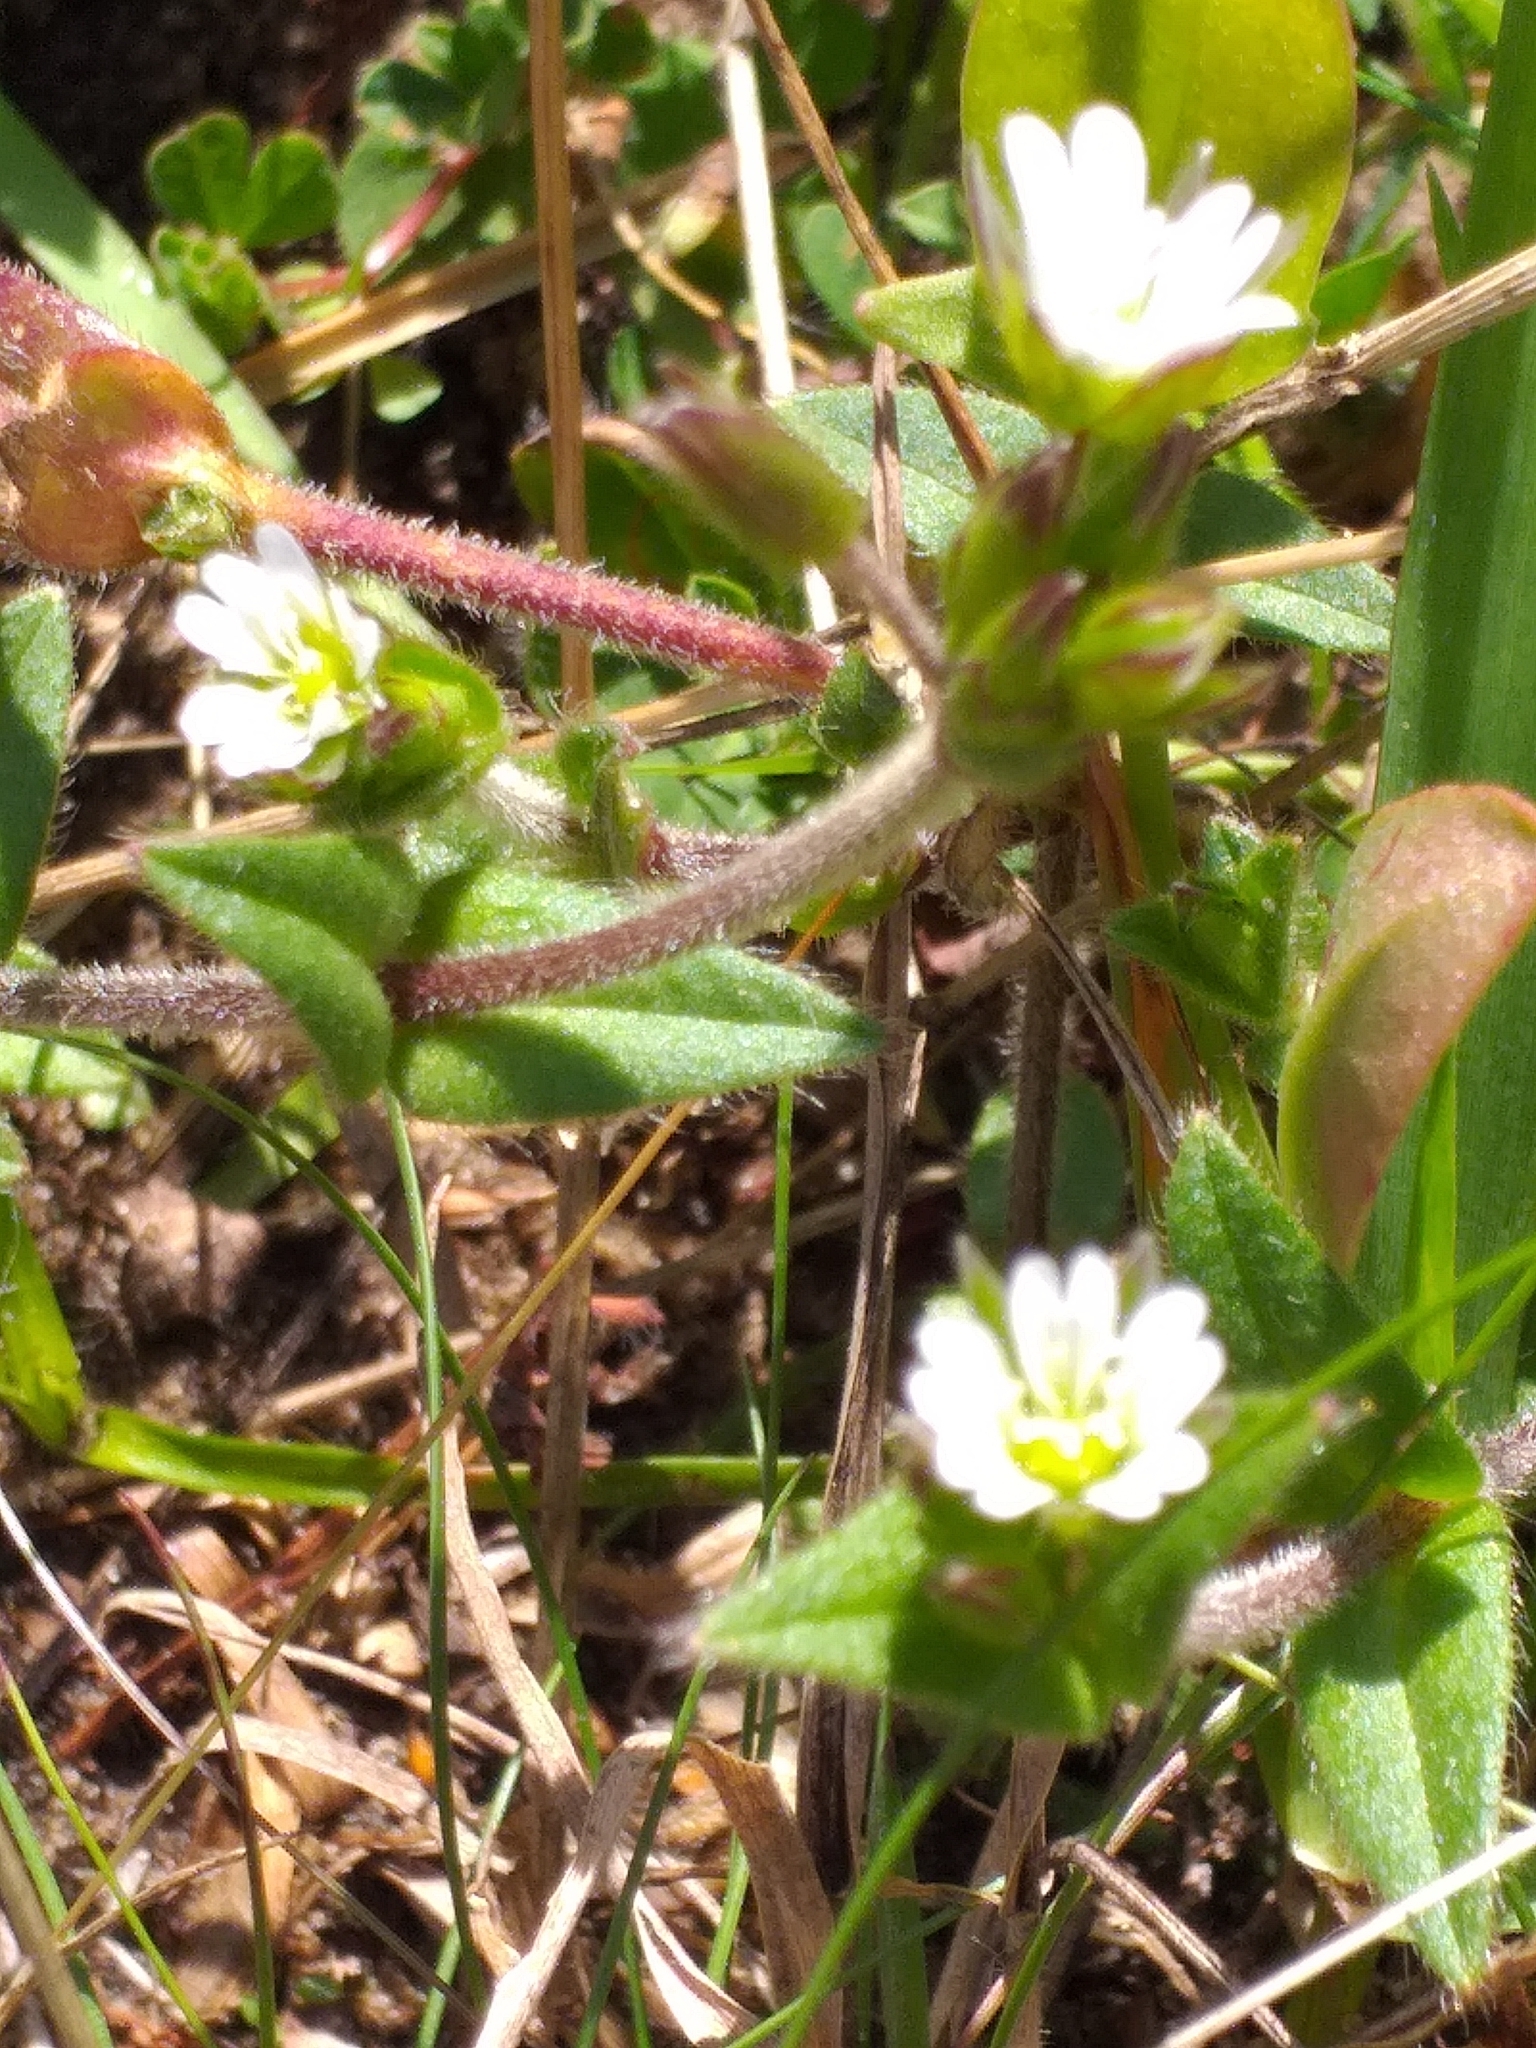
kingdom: Plantae
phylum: Tracheophyta
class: Magnoliopsida
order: Caryophyllales
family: Caryophyllaceae
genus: Cerastium
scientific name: Cerastium fontanum
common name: Common mouse-ear
